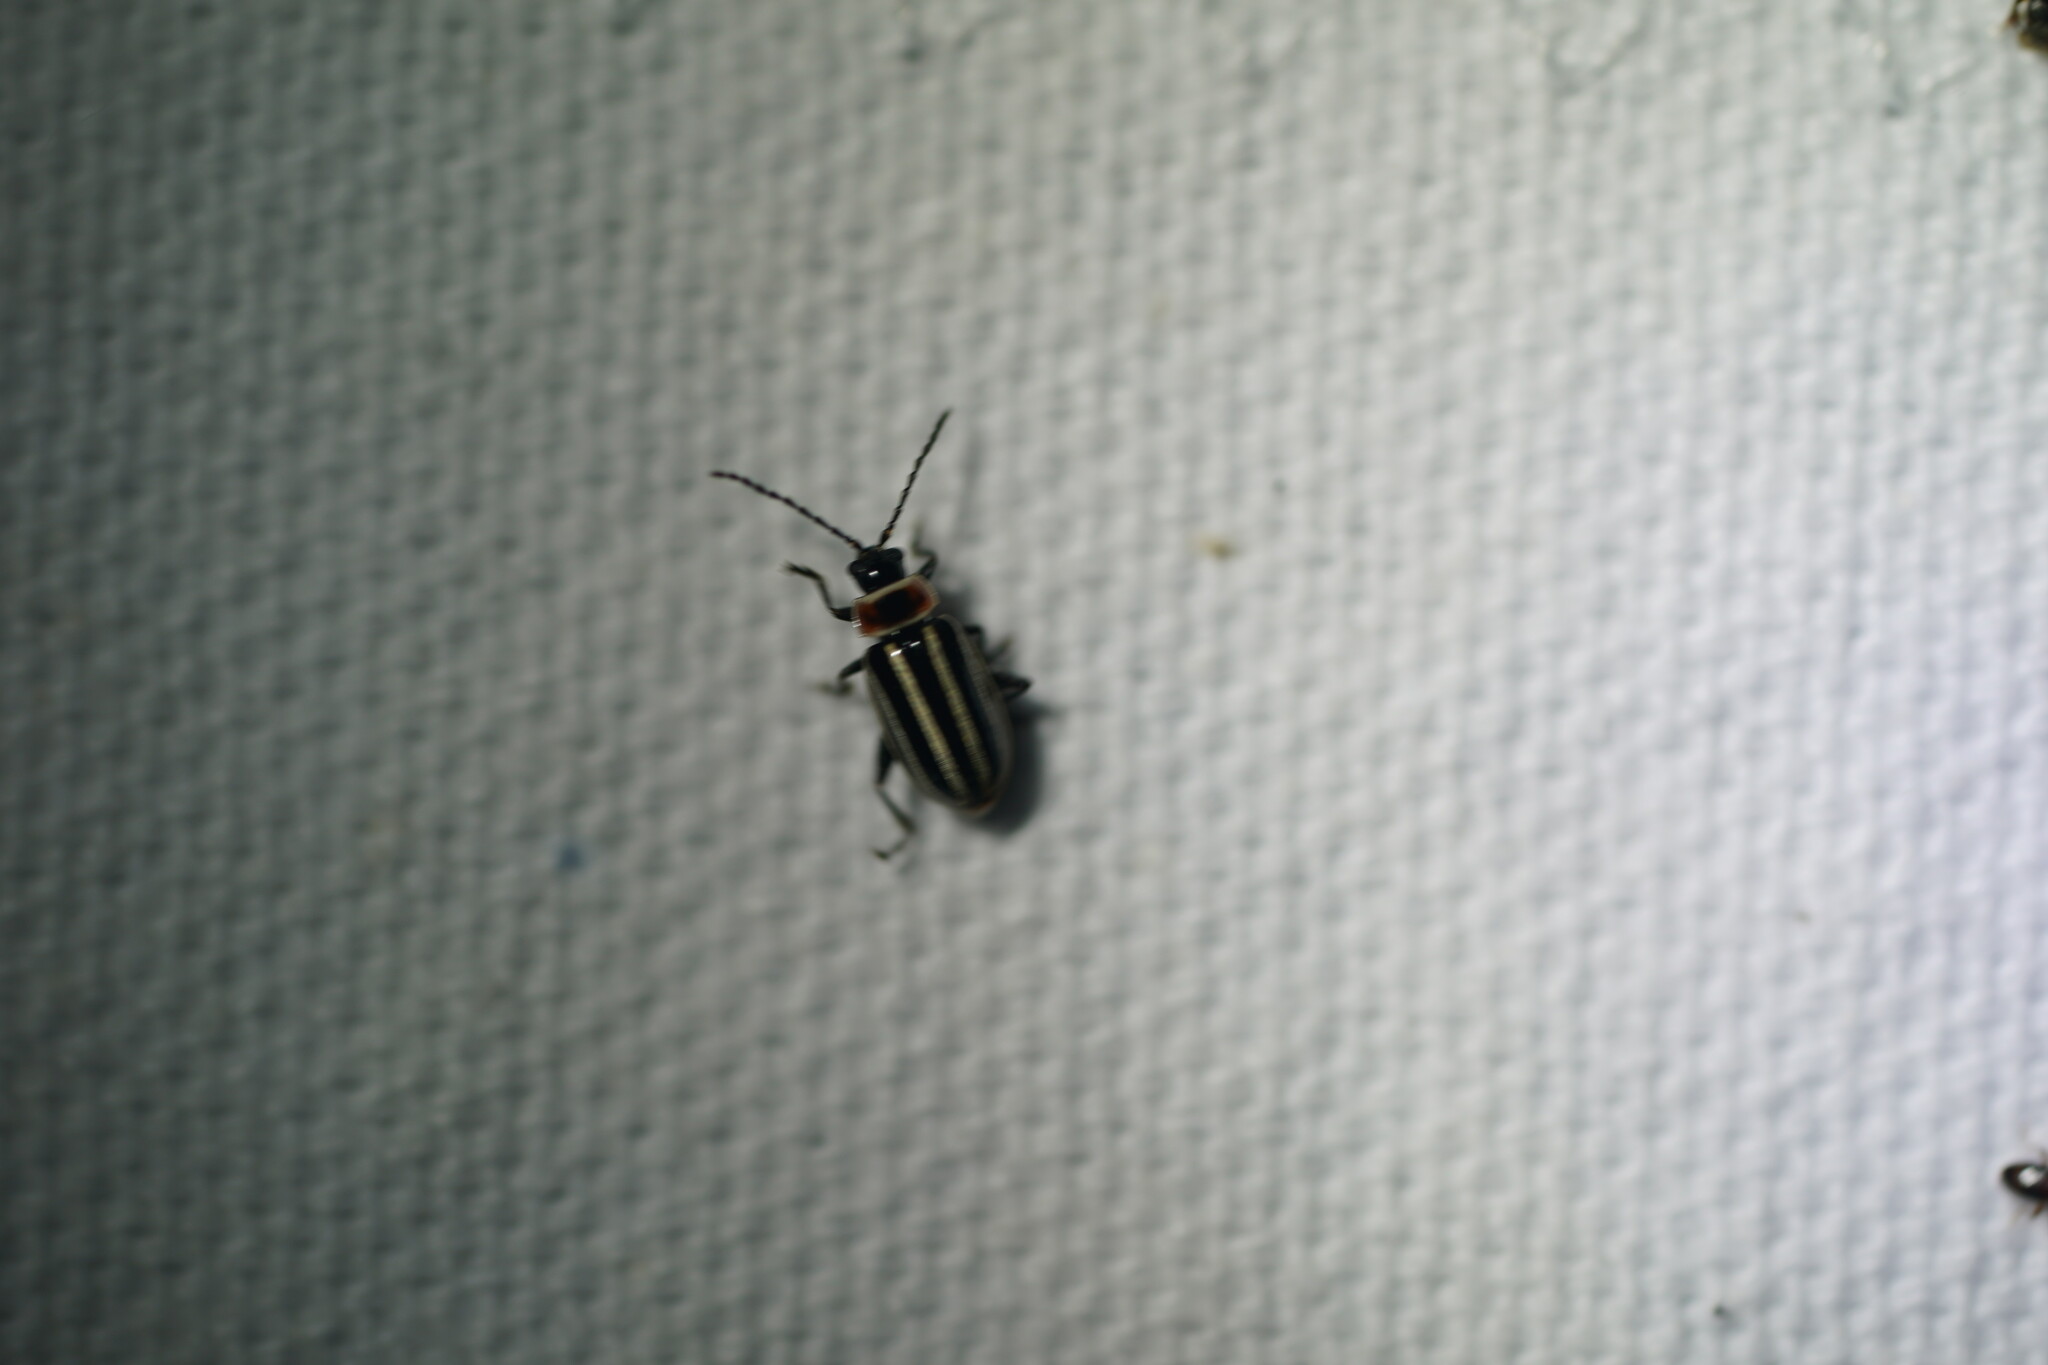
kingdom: Animalia
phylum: Arthropoda
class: Insecta
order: Coleoptera
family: Chrysomelidae
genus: Disonycha
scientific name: Disonycha pensylvanica
